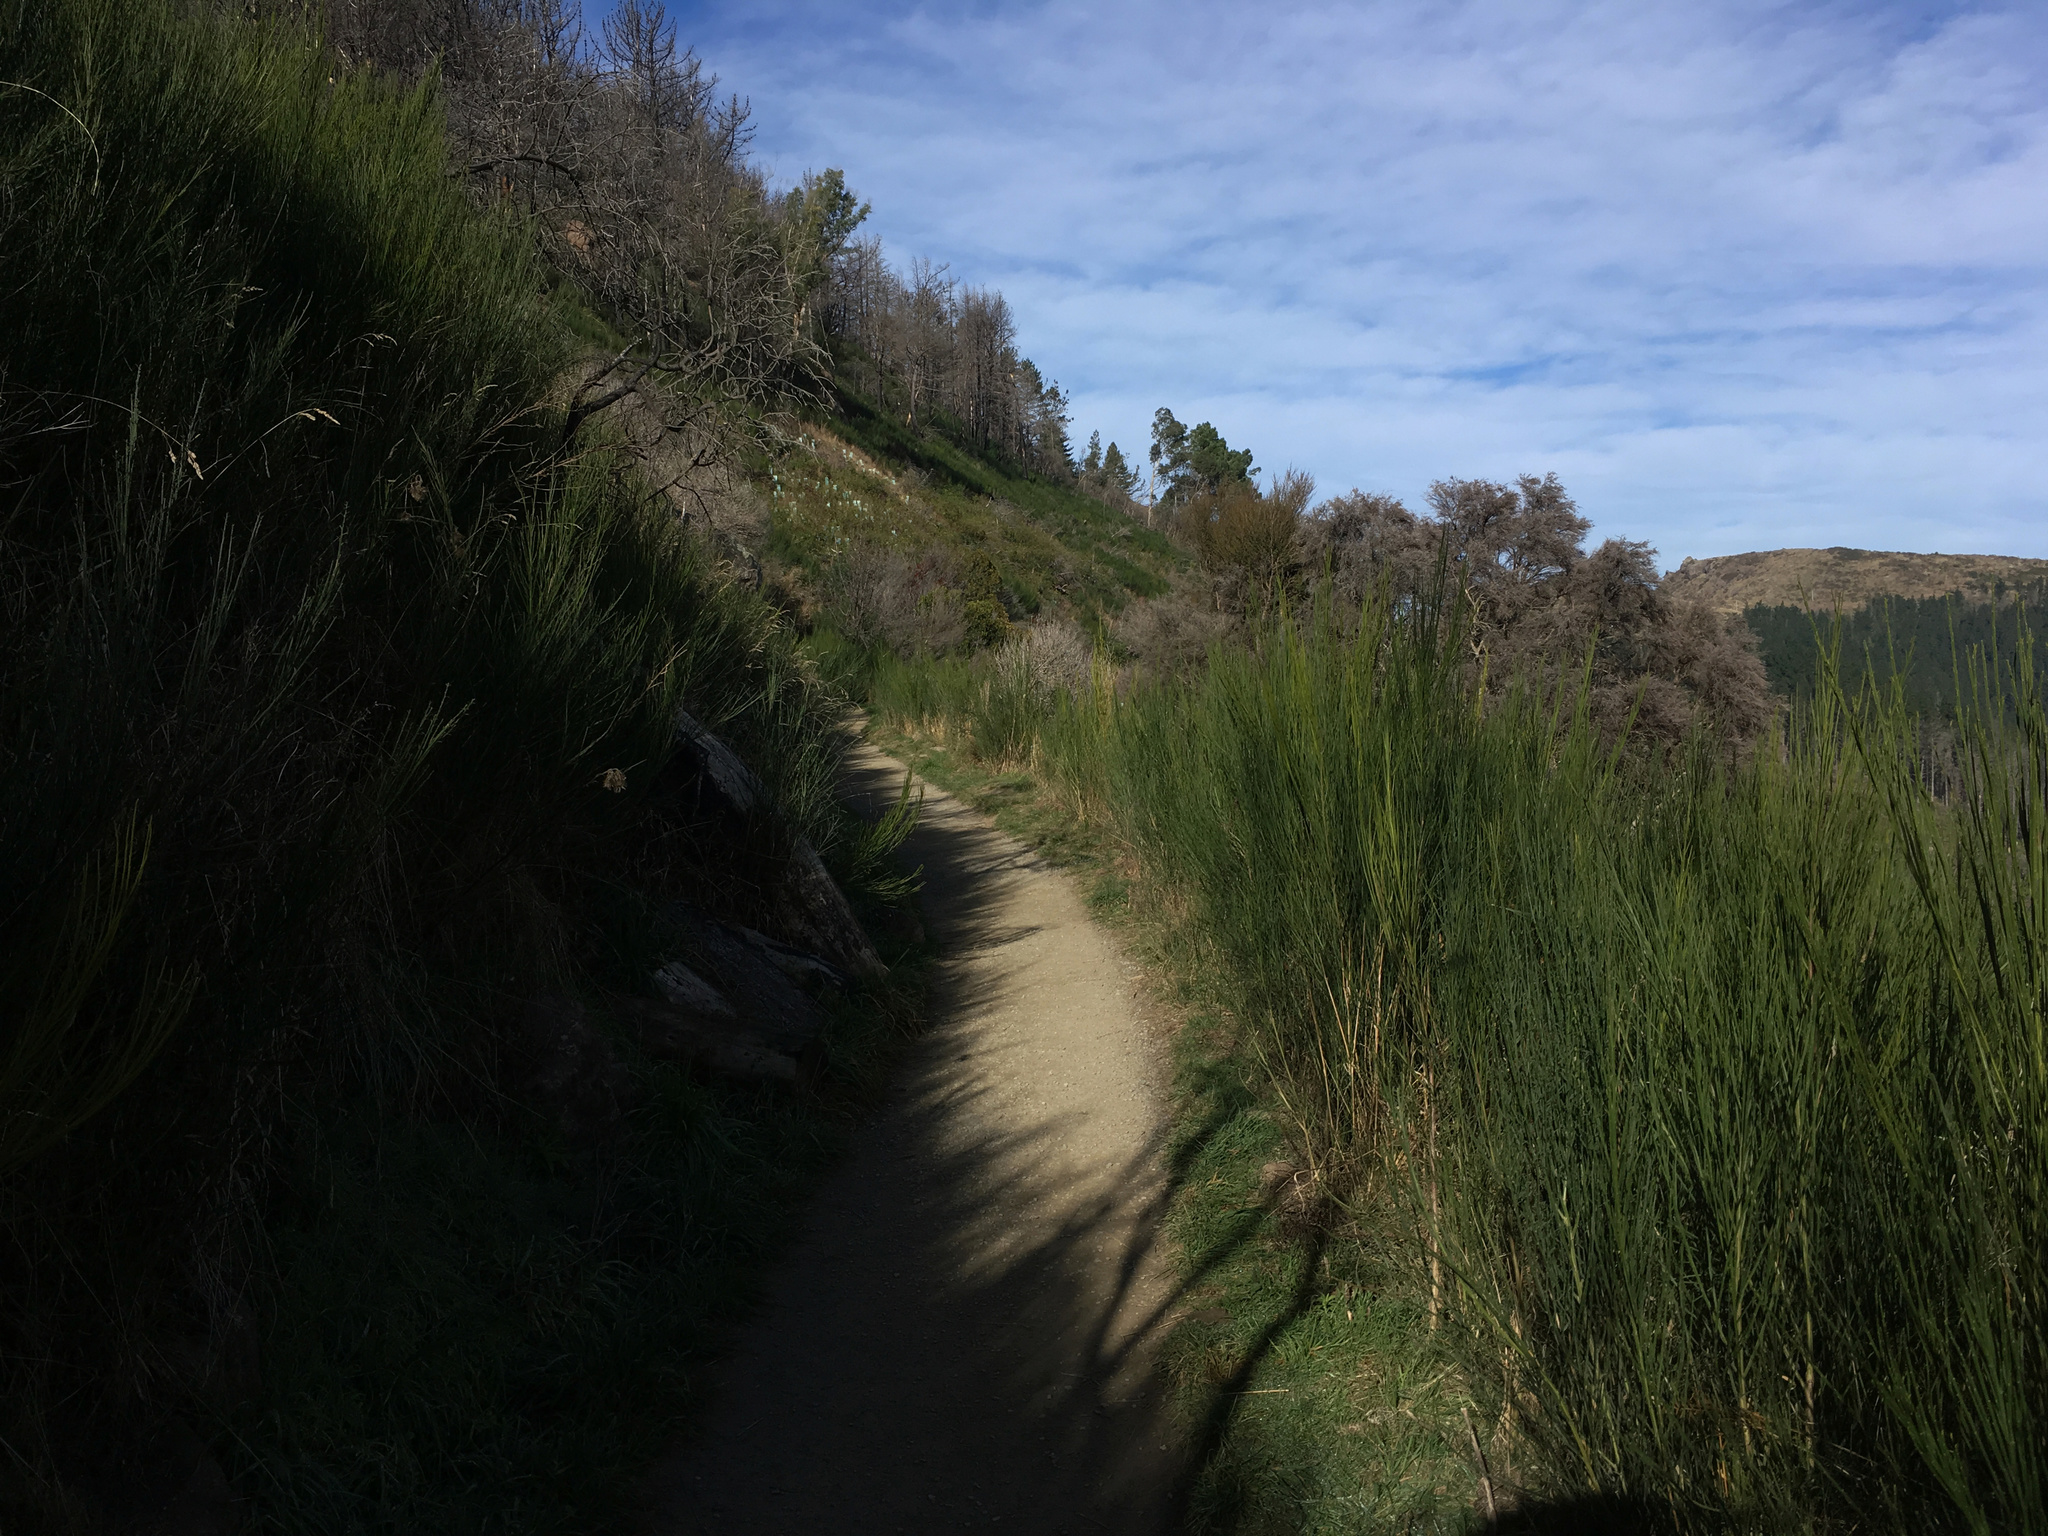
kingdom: Plantae
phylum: Tracheophyta
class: Magnoliopsida
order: Fabales
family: Fabaceae
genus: Cytisus
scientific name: Cytisus scoparius
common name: Scotch broom
